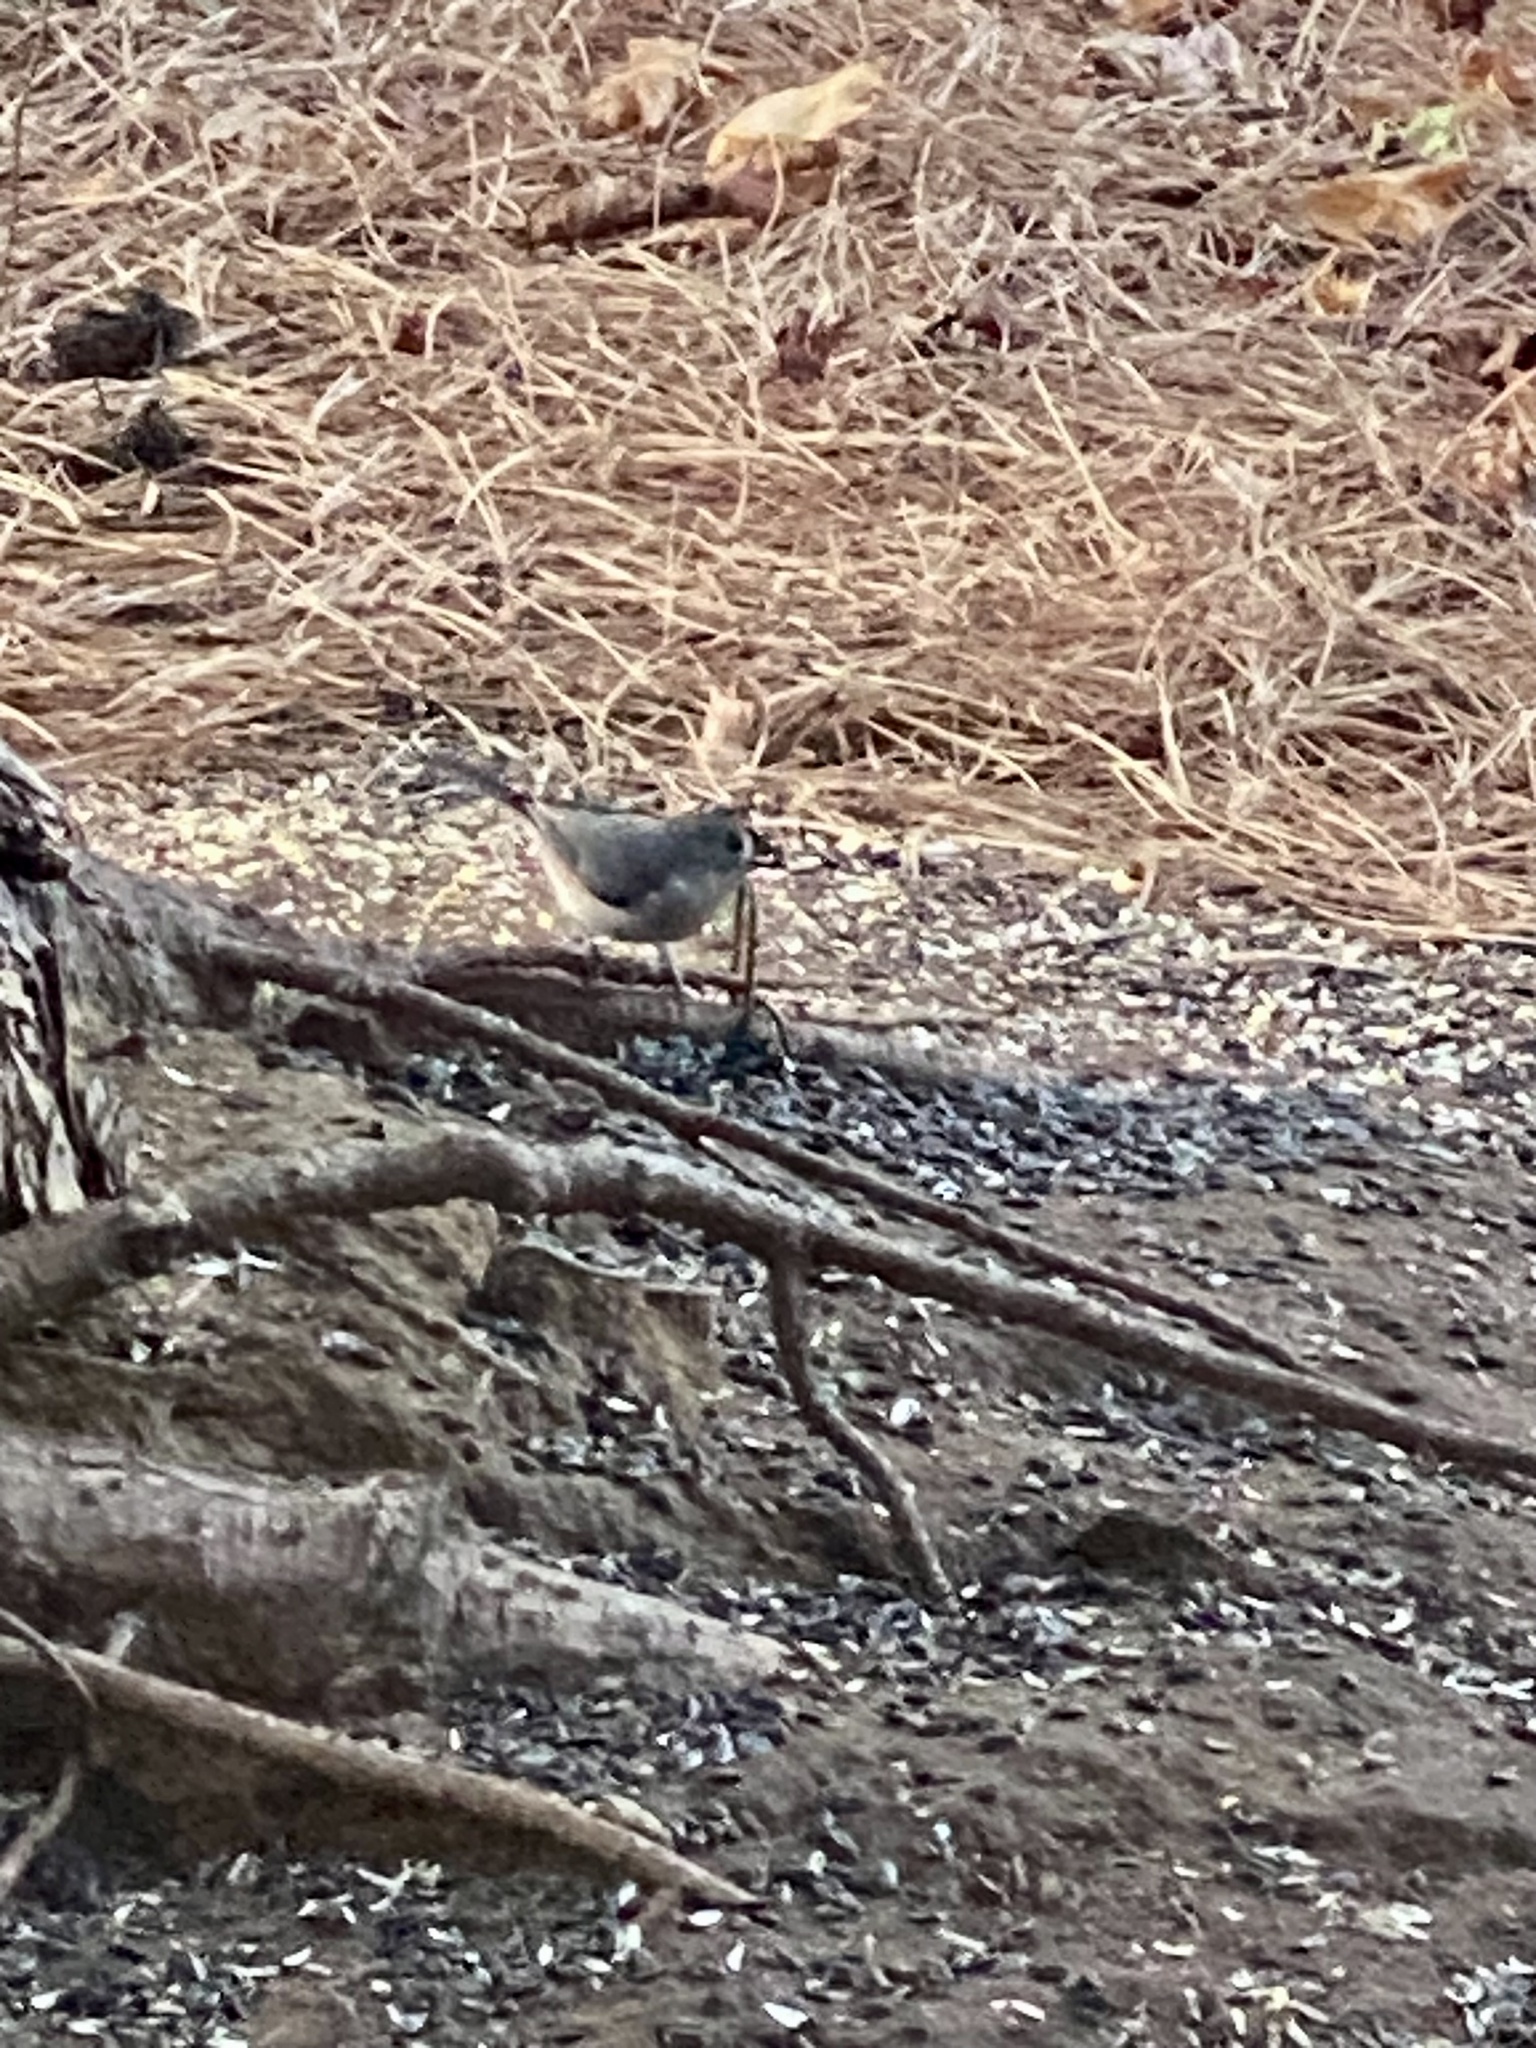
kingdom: Animalia
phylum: Chordata
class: Aves
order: Passeriformes
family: Paridae
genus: Baeolophus
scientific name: Baeolophus bicolor
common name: Tufted titmouse
